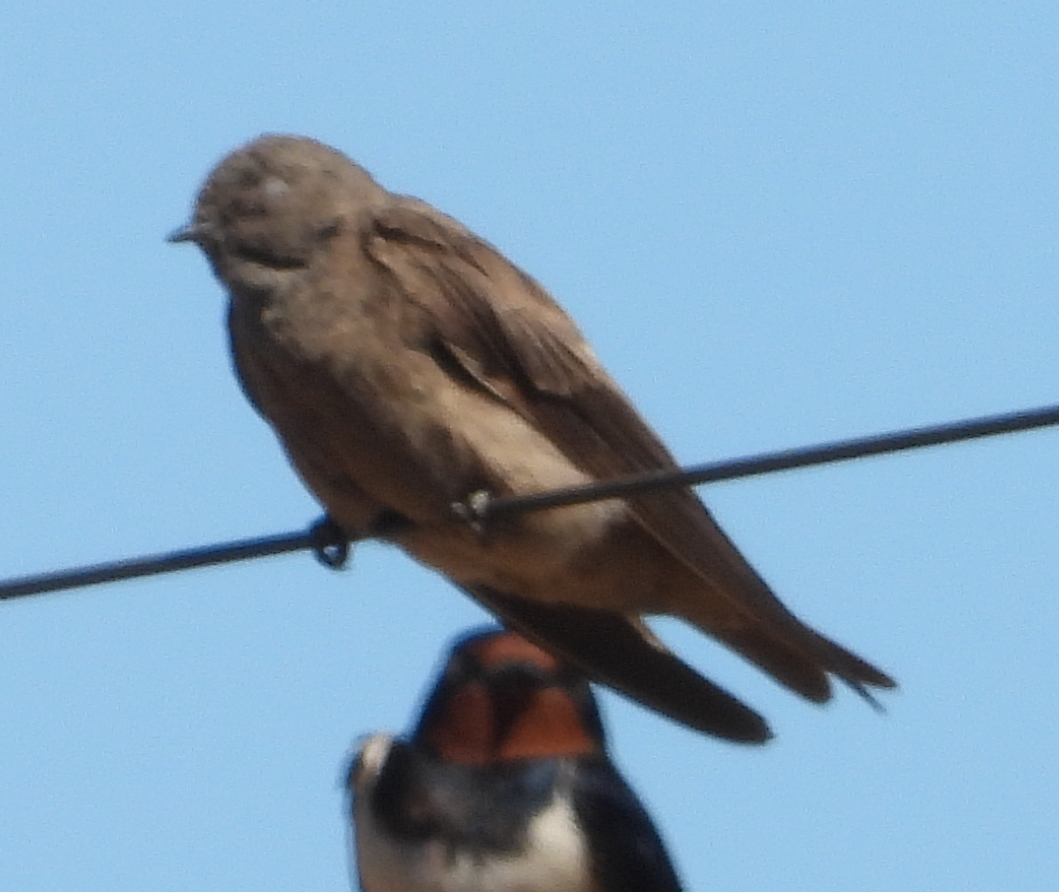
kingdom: Animalia
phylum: Chordata
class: Aves
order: Passeriformes
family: Hirundinidae
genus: Riparia
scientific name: Riparia paludicola
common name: Brown-throated martin
